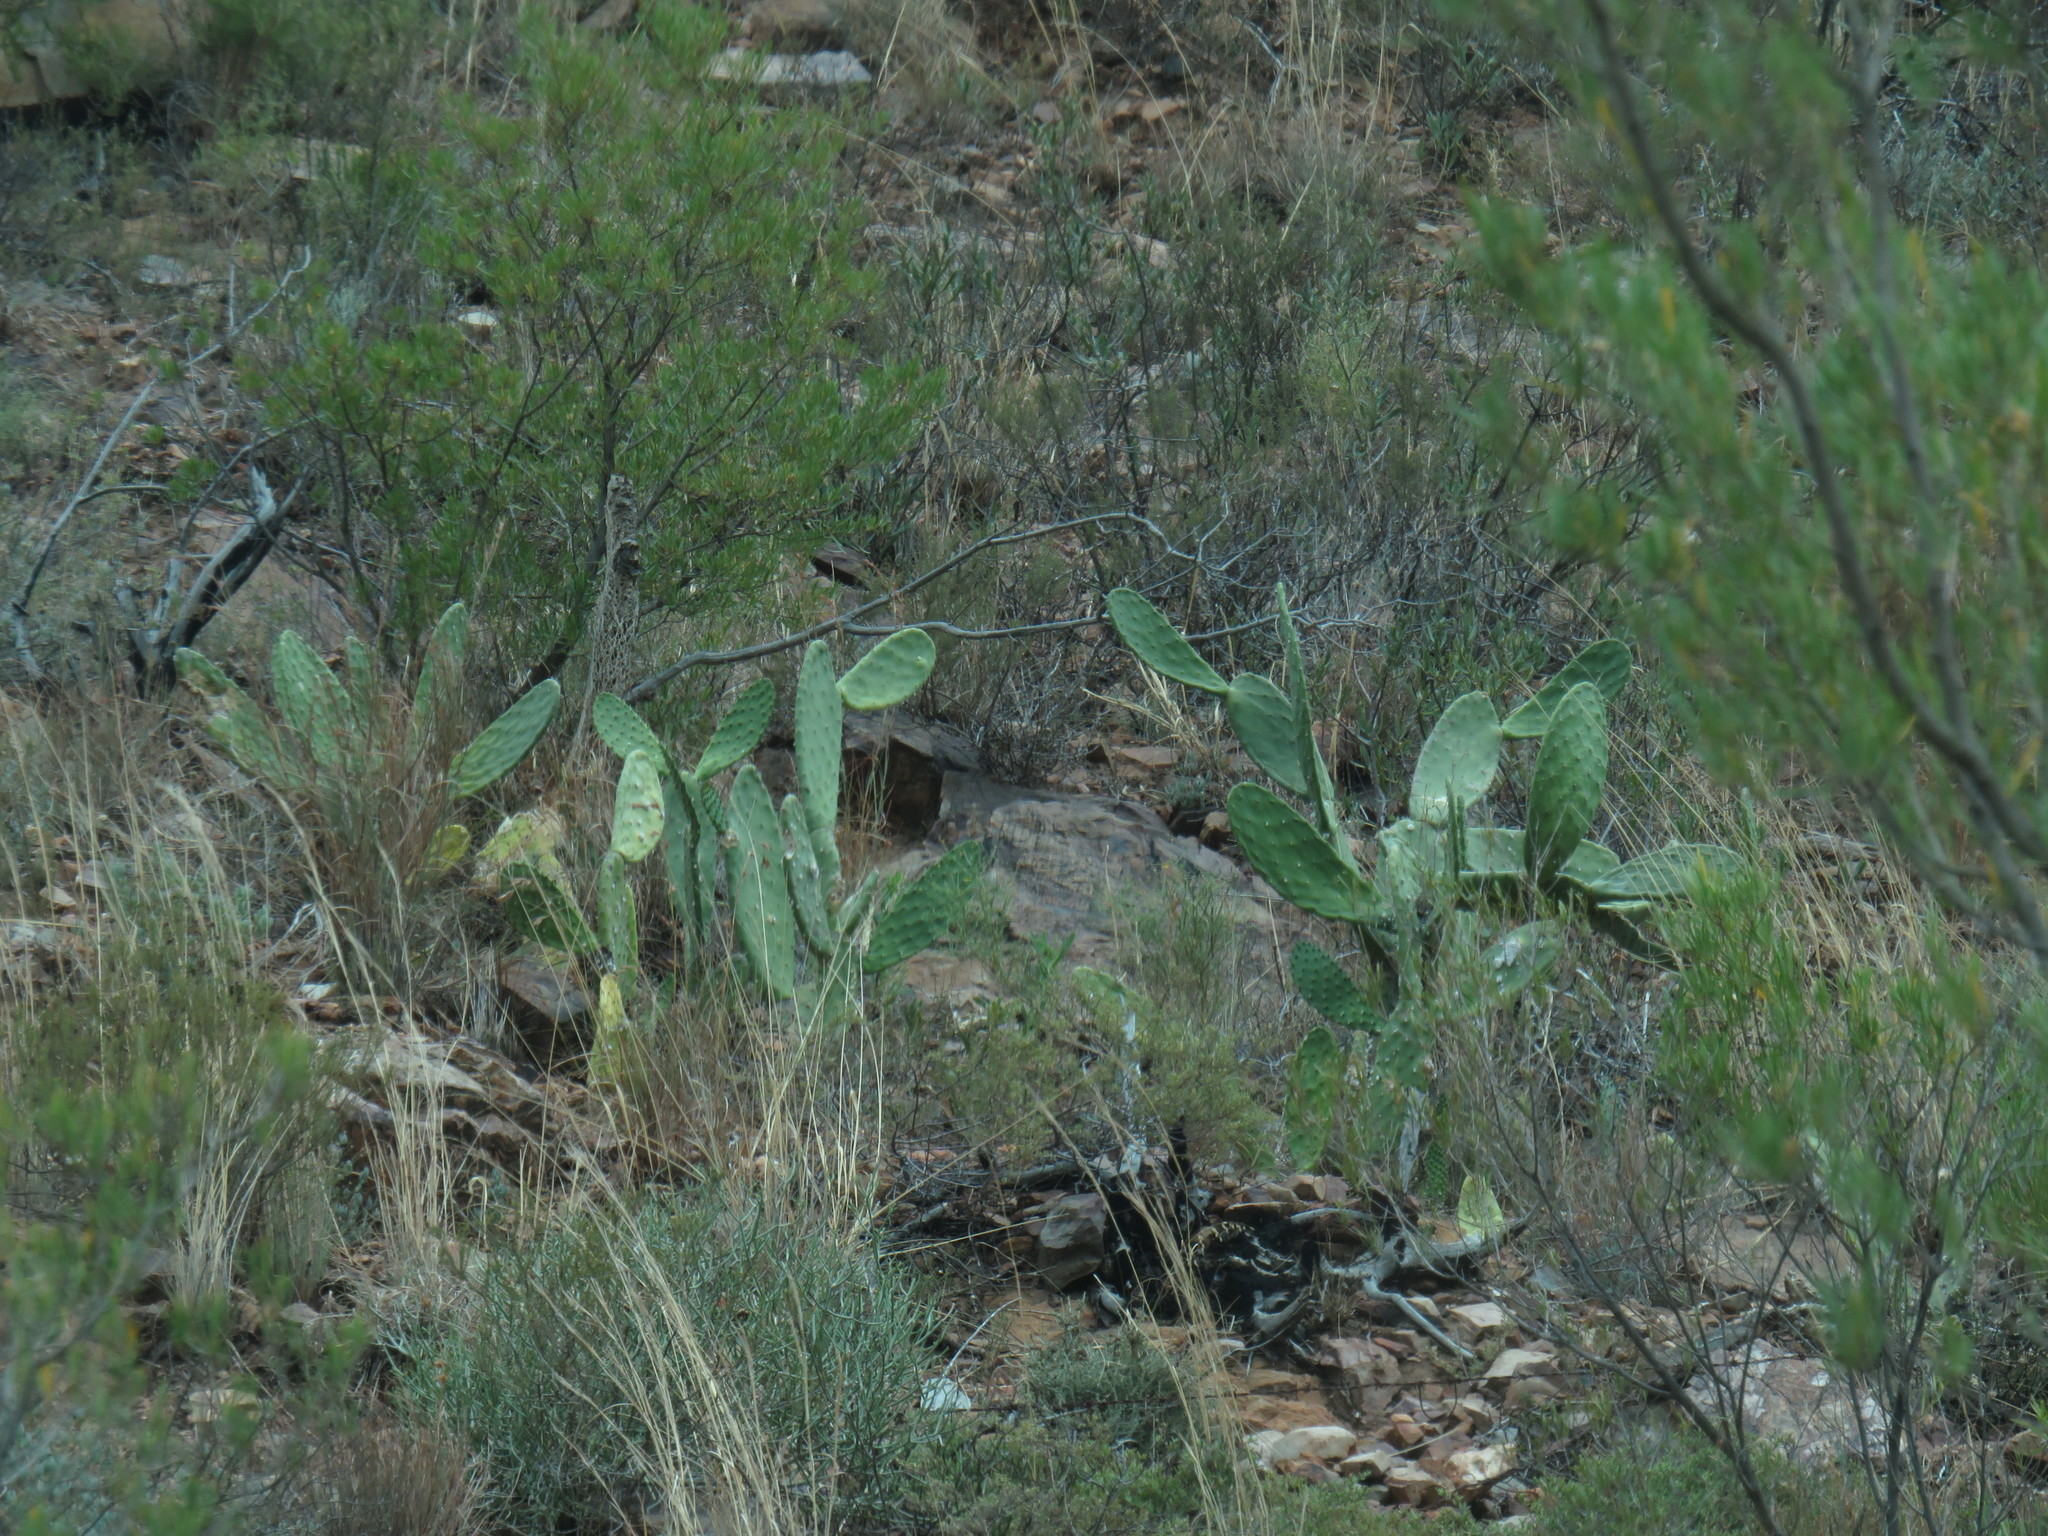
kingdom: Plantae
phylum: Tracheophyta
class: Magnoliopsida
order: Caryophyllales
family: Cactaceae
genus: Opuntia
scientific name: Opuntia ficus-indica
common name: Barbary fig
